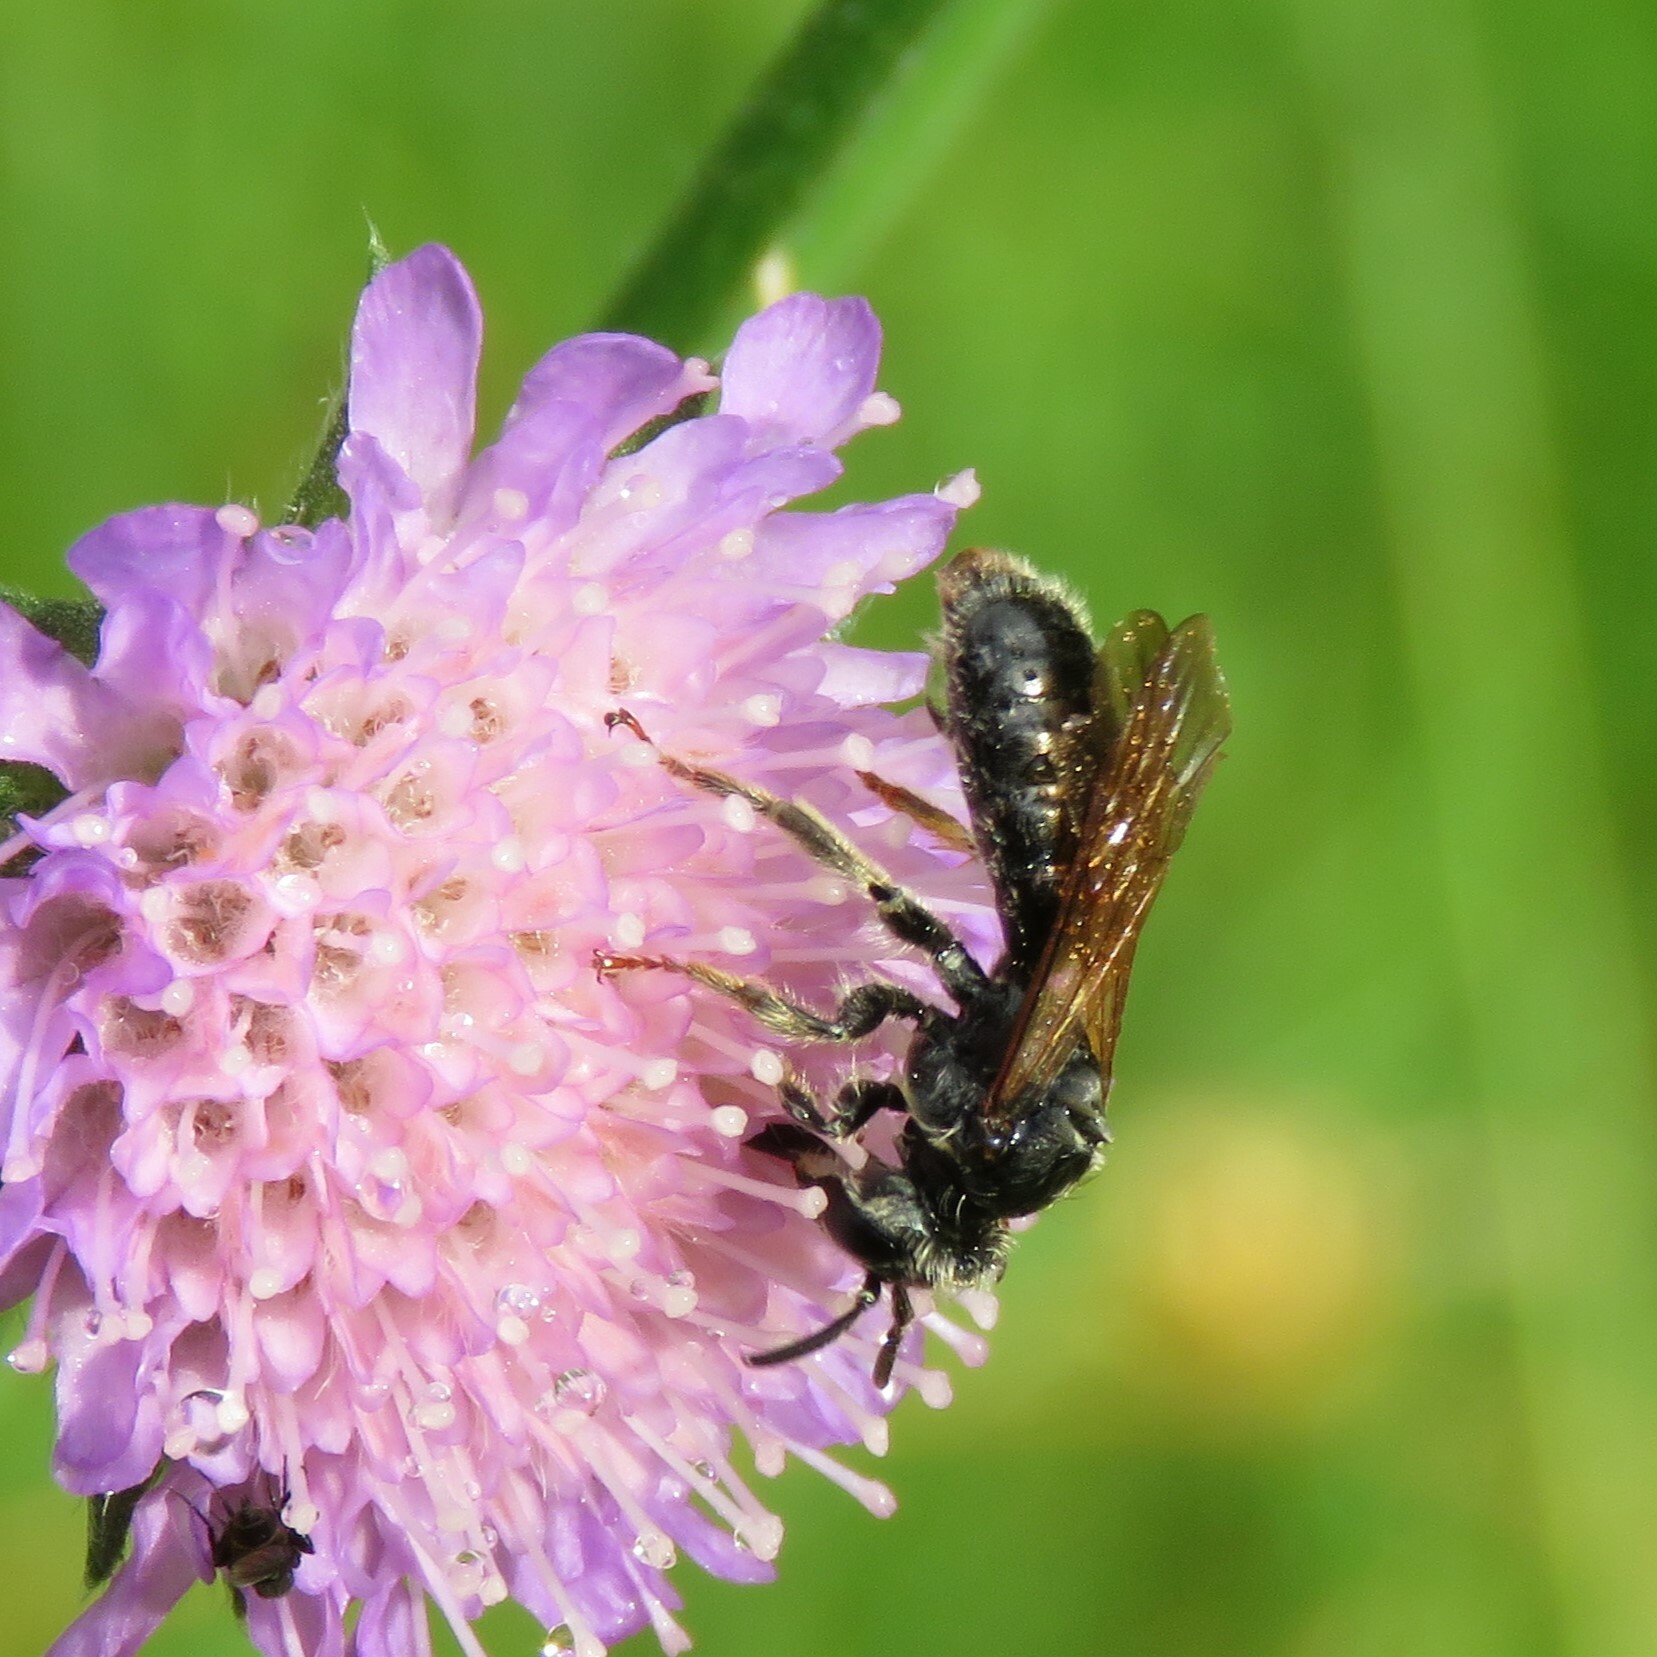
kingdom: Animalia
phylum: Arthropoda
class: Insecta
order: Hymenoptera
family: Andrenidae
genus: Andrena
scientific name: Andrena hattorfiana
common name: Large scabious mining bee
